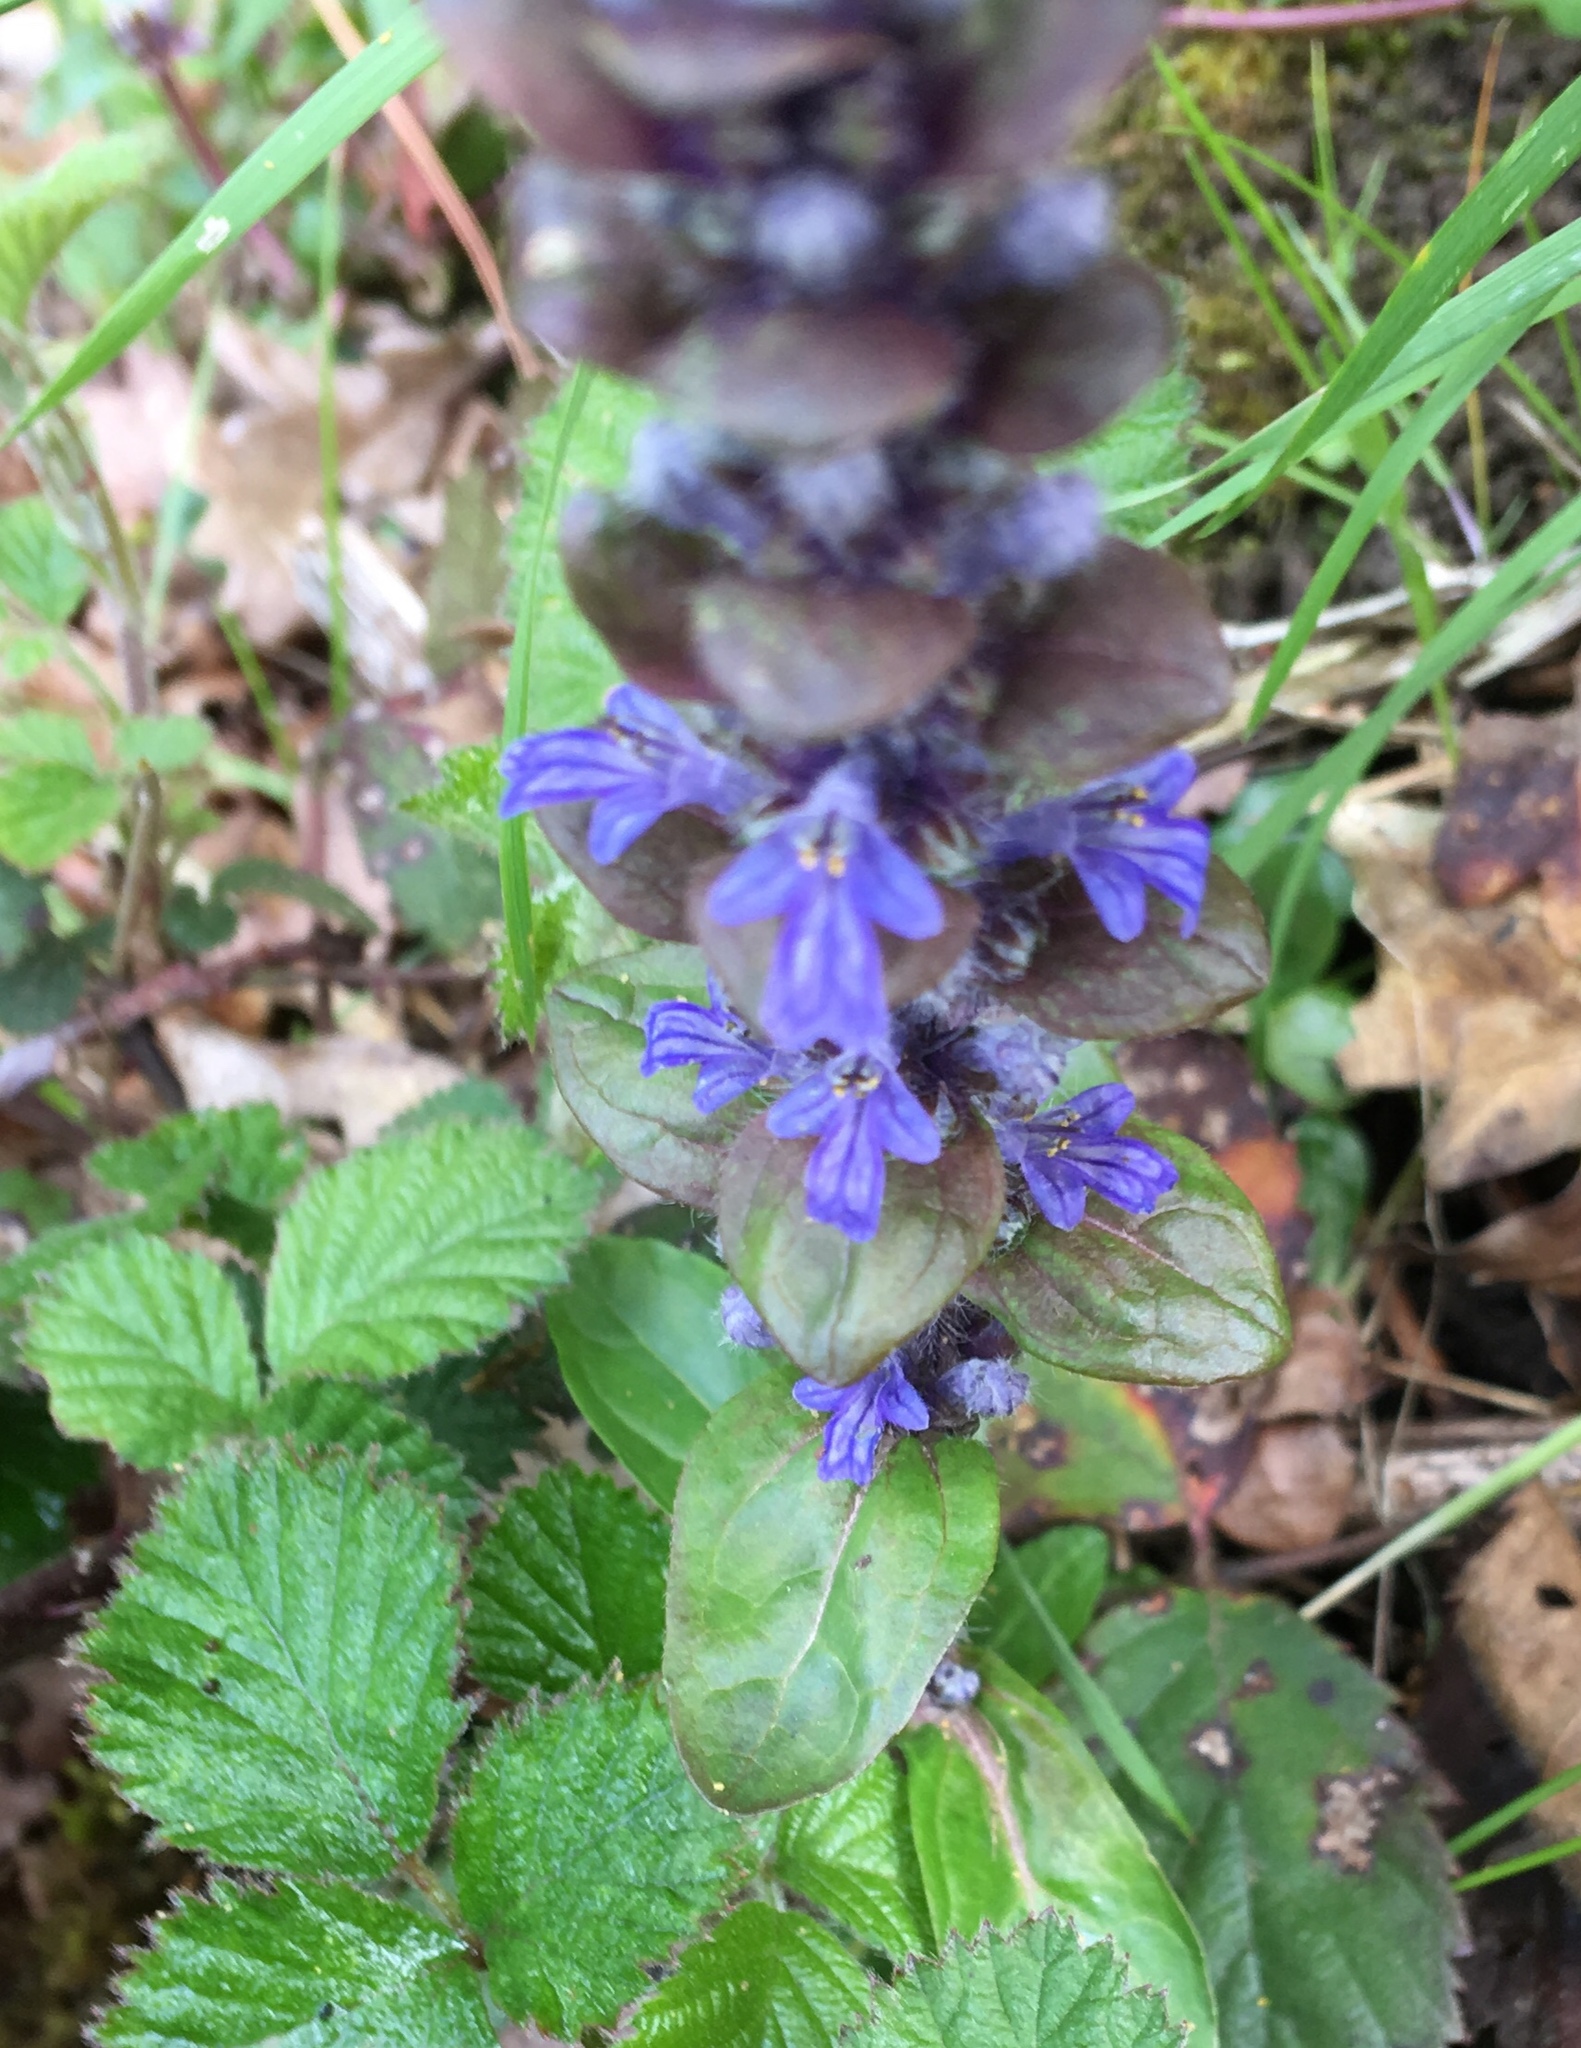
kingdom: Plantae
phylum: Tracheophyta
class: Magnoliopsida
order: Lamiales
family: Lamiaceae
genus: Ajuga
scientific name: Ajuga reptans
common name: Bugle
